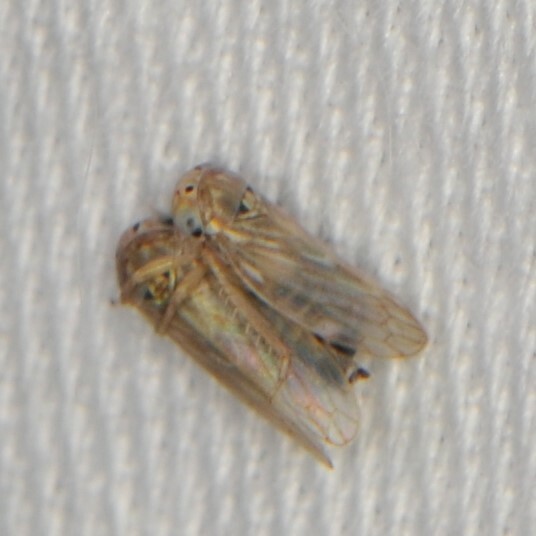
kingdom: Animalia
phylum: Arthropoda
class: Insecta
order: Hemiptera
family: Cicadellidae
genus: Ceratagallia
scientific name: Ceratagallia
